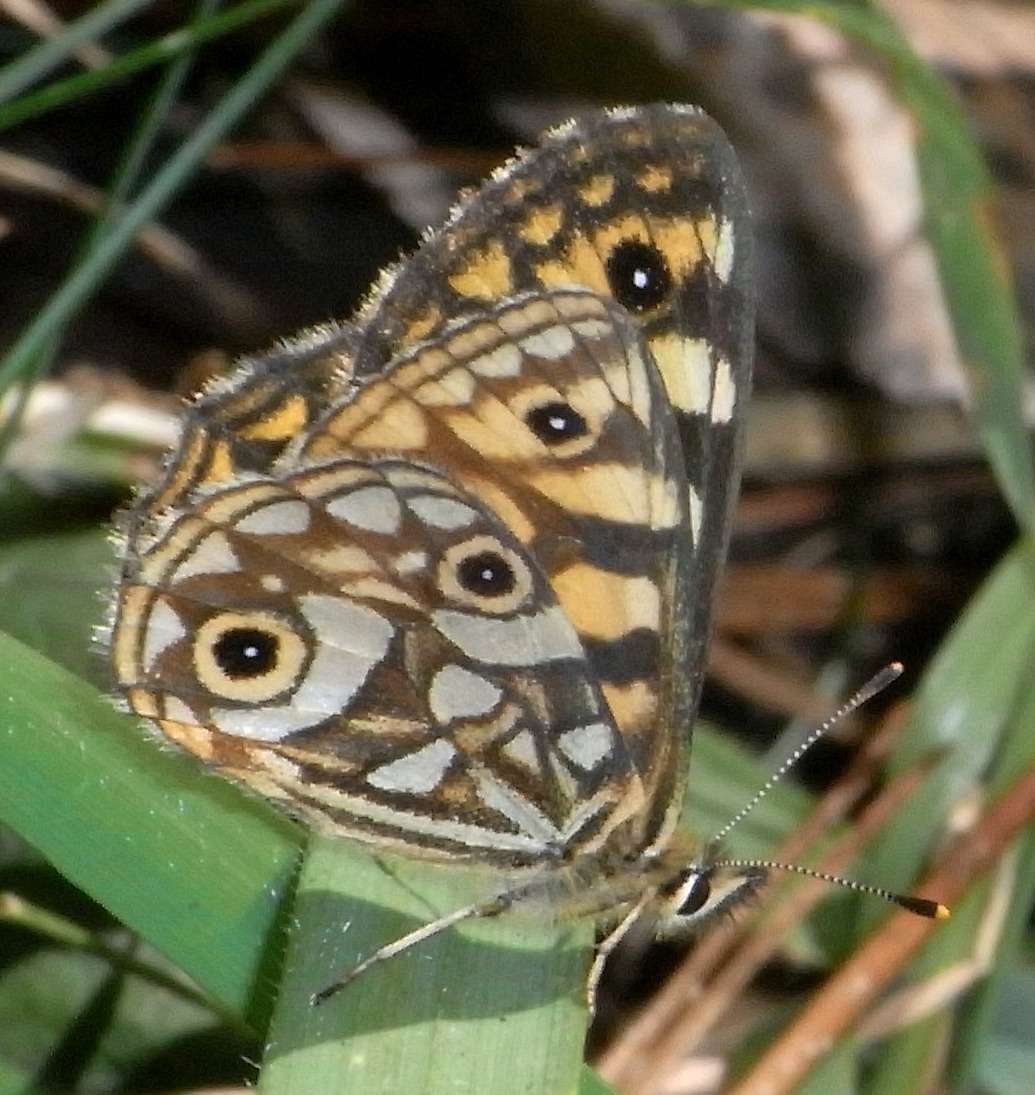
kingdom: Animalia
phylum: Arthropoda
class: Insecta
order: Lepidoptera
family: Nymphalidae
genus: Oreixenica
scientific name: Oreixenica lathoniella
